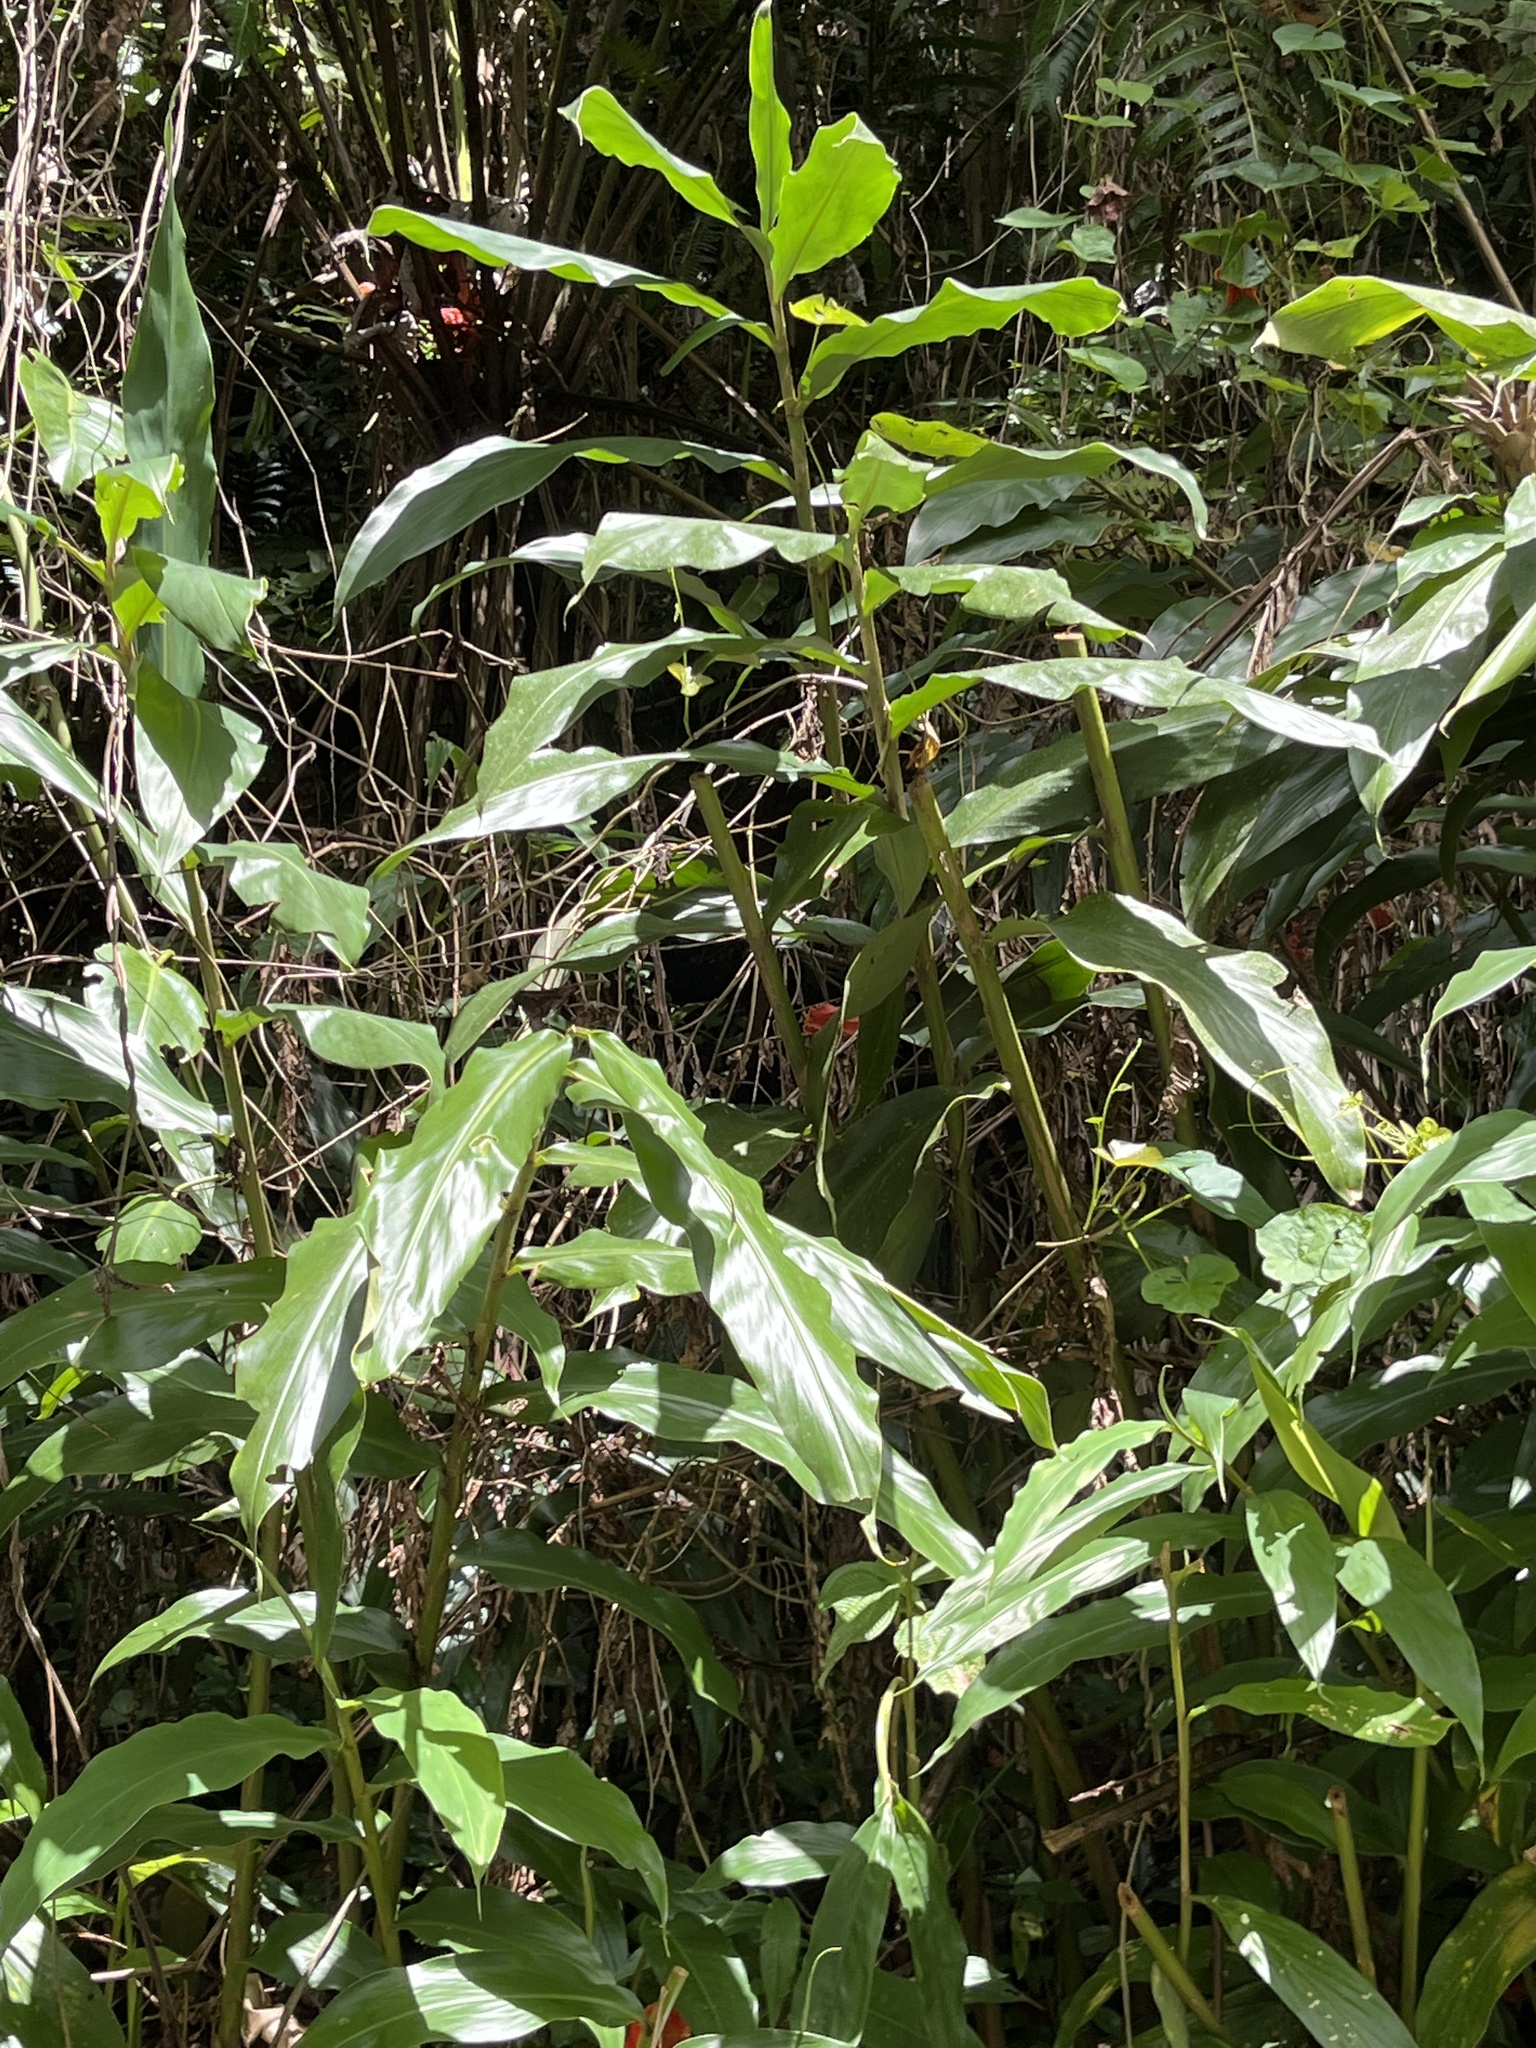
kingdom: Plantae
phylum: Tracheophyta
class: Liliopsida
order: Zingiberales
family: Zingiberaceae
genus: Hedychium
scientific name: Hedychium coronarium
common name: White garland-lily
